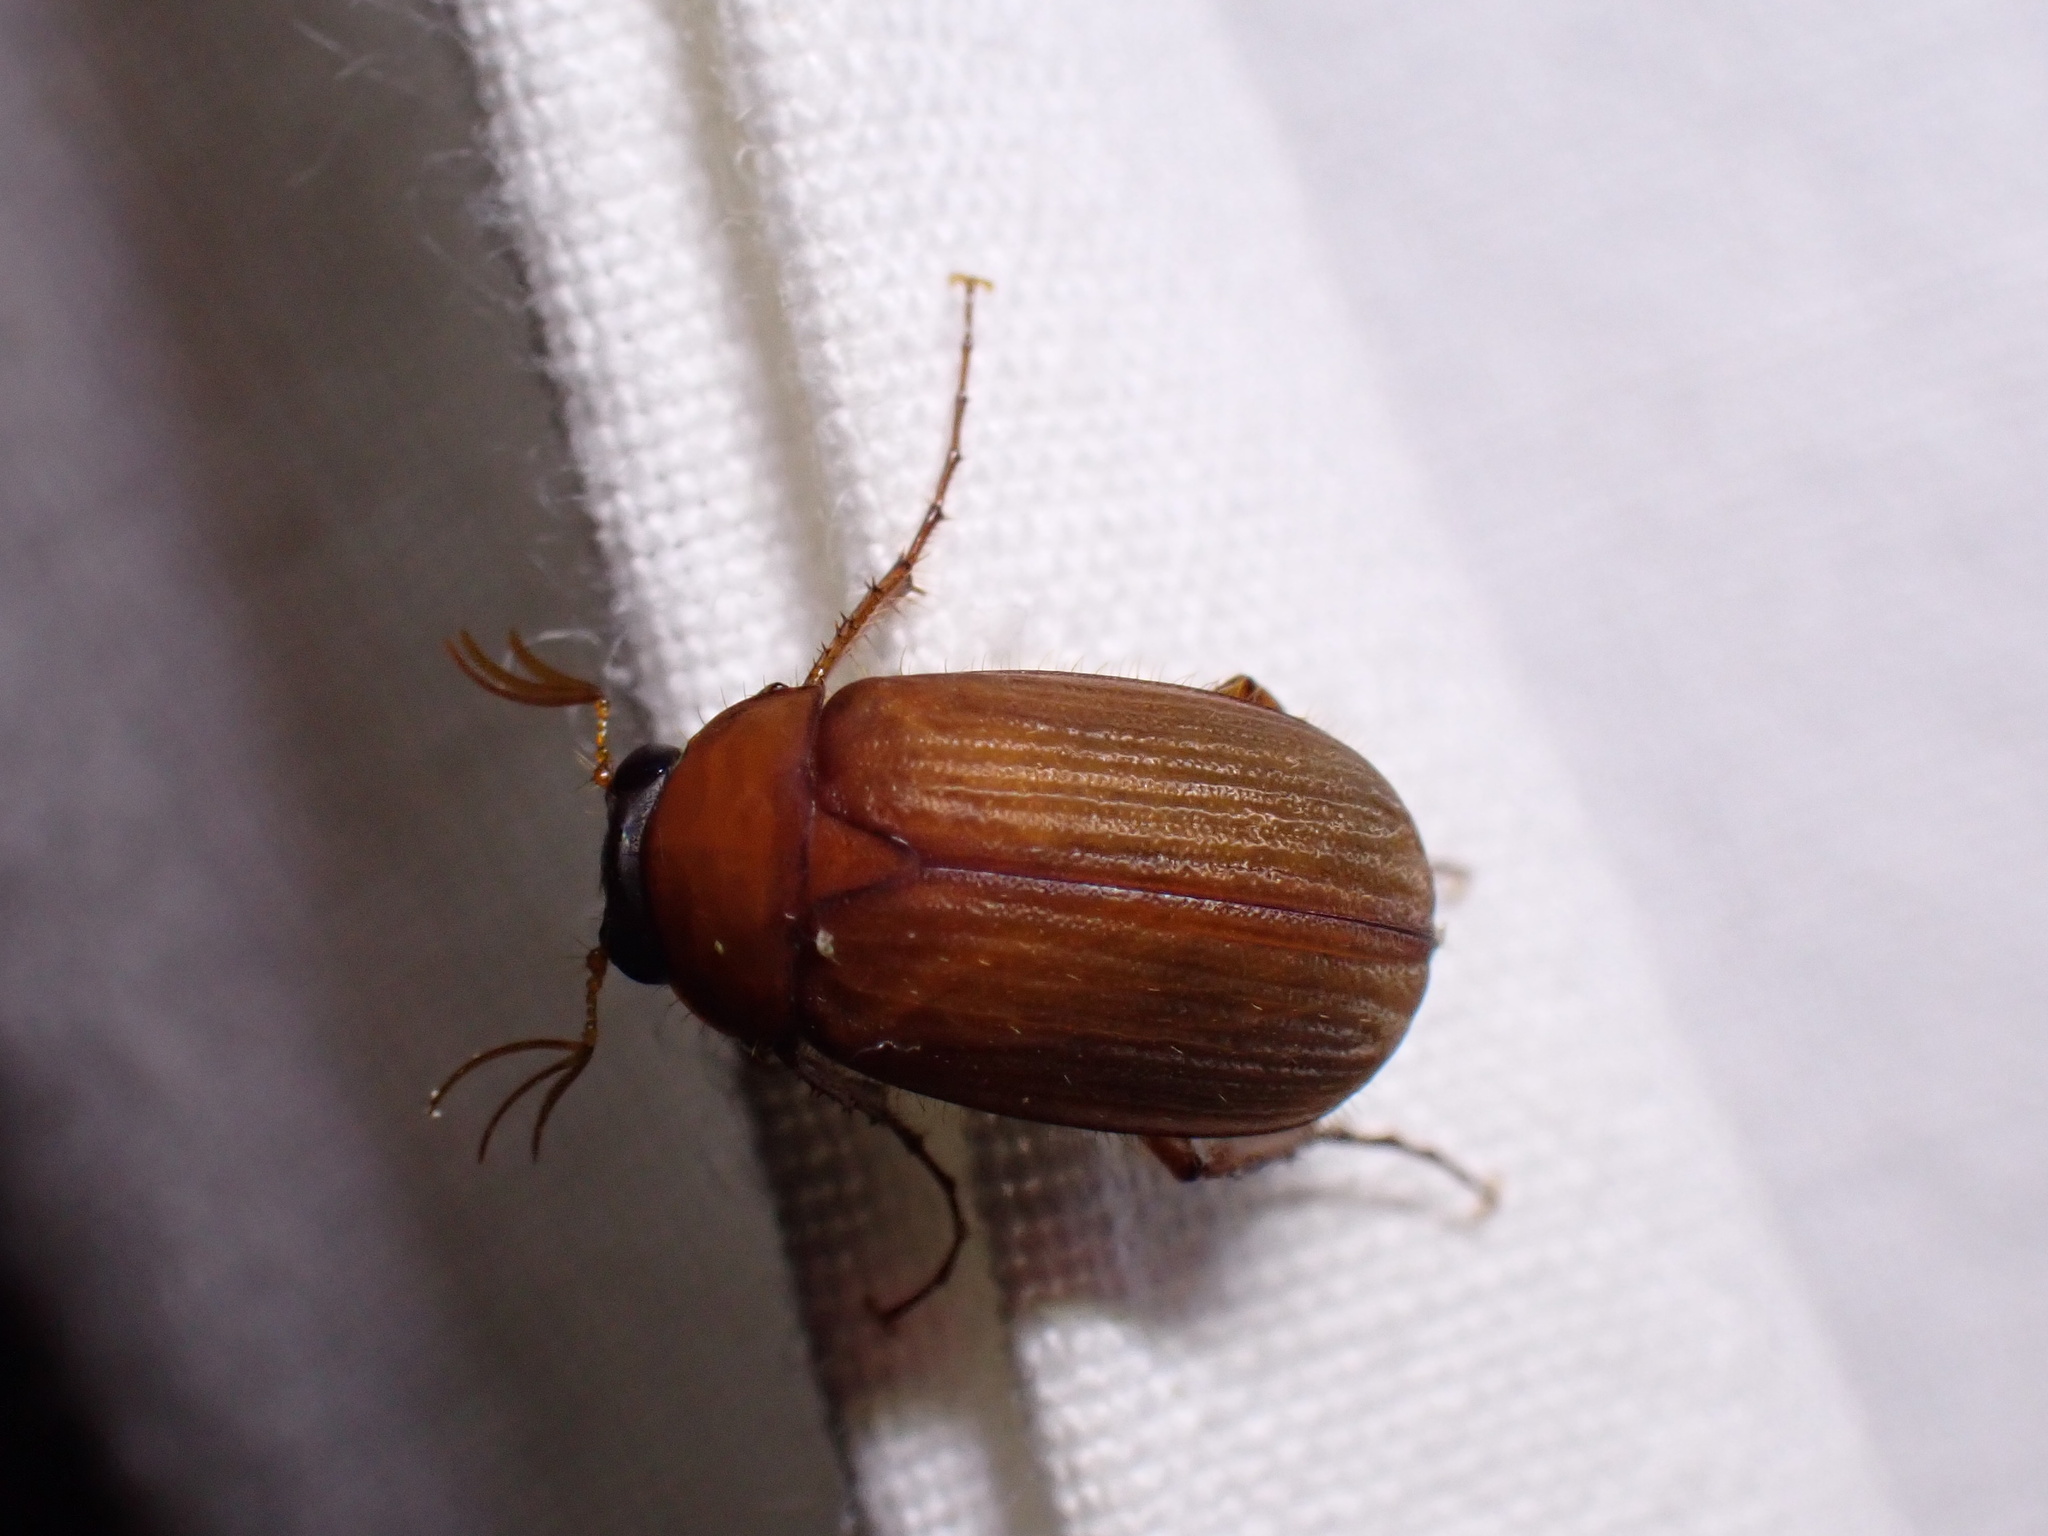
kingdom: Animalia
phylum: Arthropoda
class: Insecta
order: Coleoptera
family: Scarabaeidae
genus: Serica
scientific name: Serica brunnea
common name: Brown chafer
